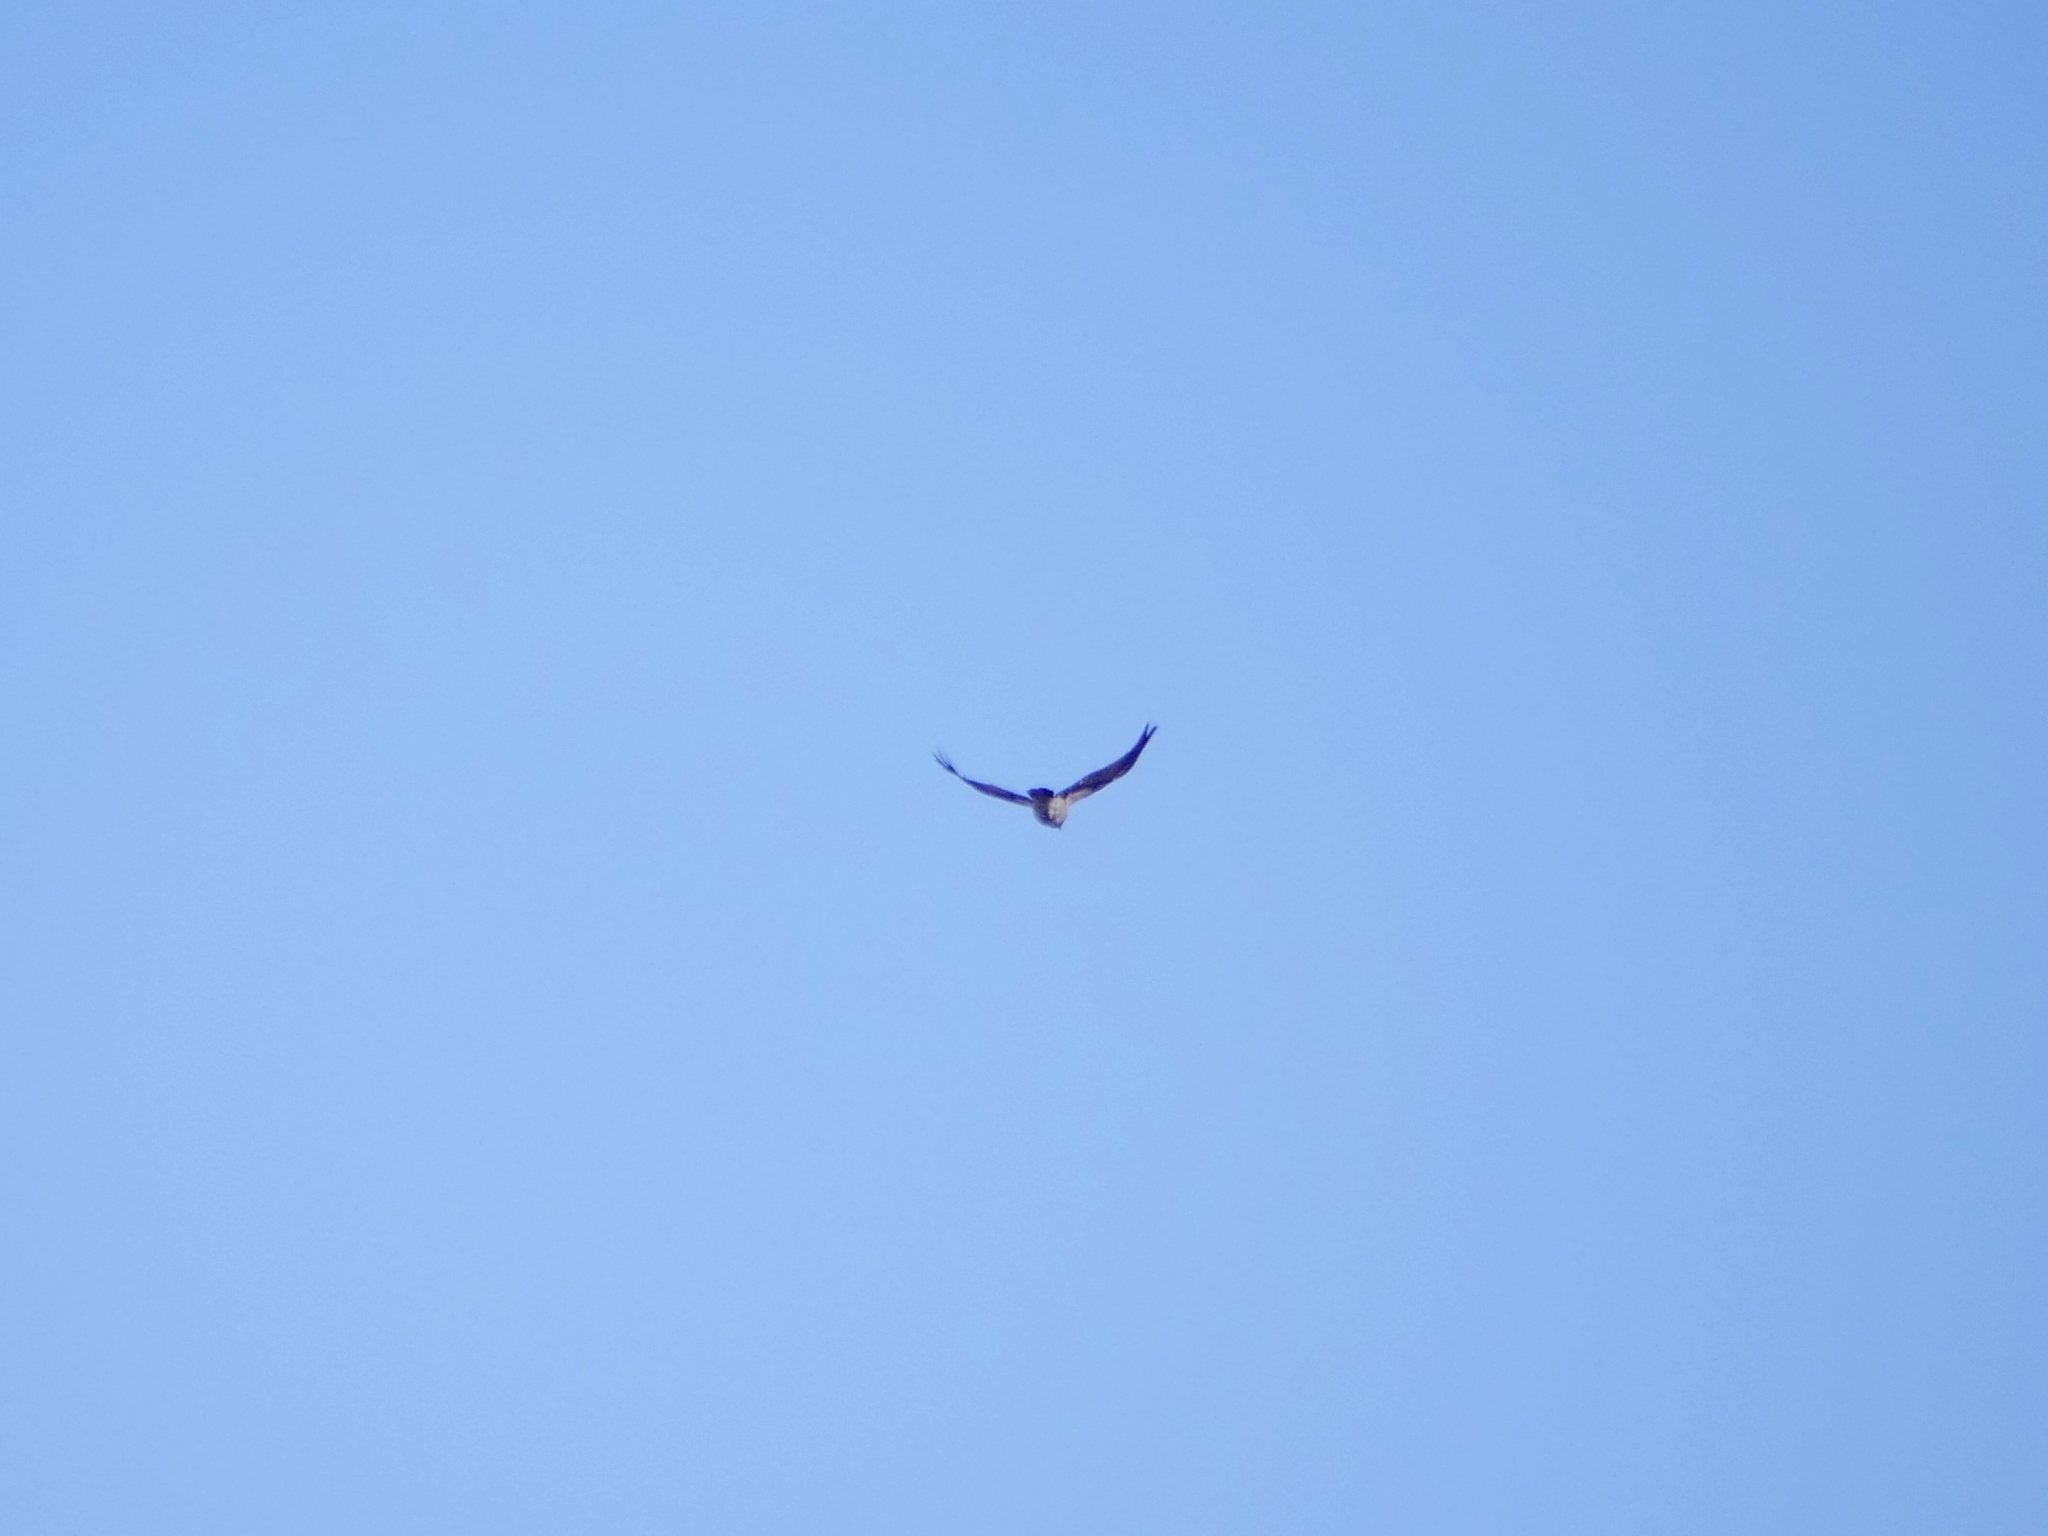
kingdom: Animalia
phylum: Chordata
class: Aves
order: Passeriformes
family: Corvidae
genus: Corvus
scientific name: Corvus cornix
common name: Hooded crow
